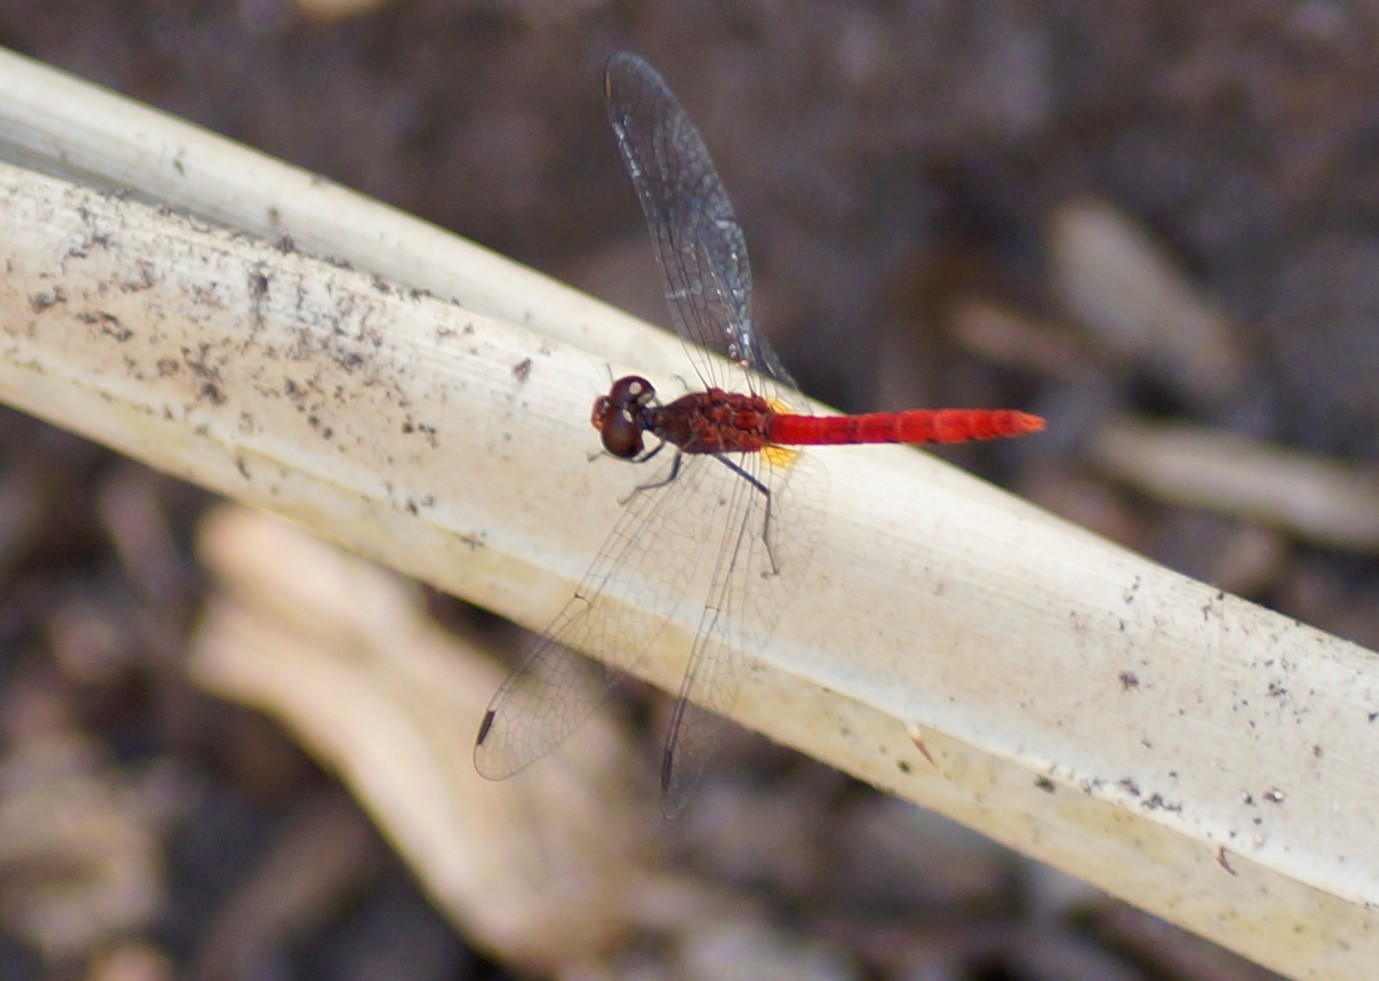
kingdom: Animalia
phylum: Arthropoda
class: Insecta
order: Odonata
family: Libellulidae
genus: Nannodiplax
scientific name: Nannodiplax rubra
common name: Pygmy percher
